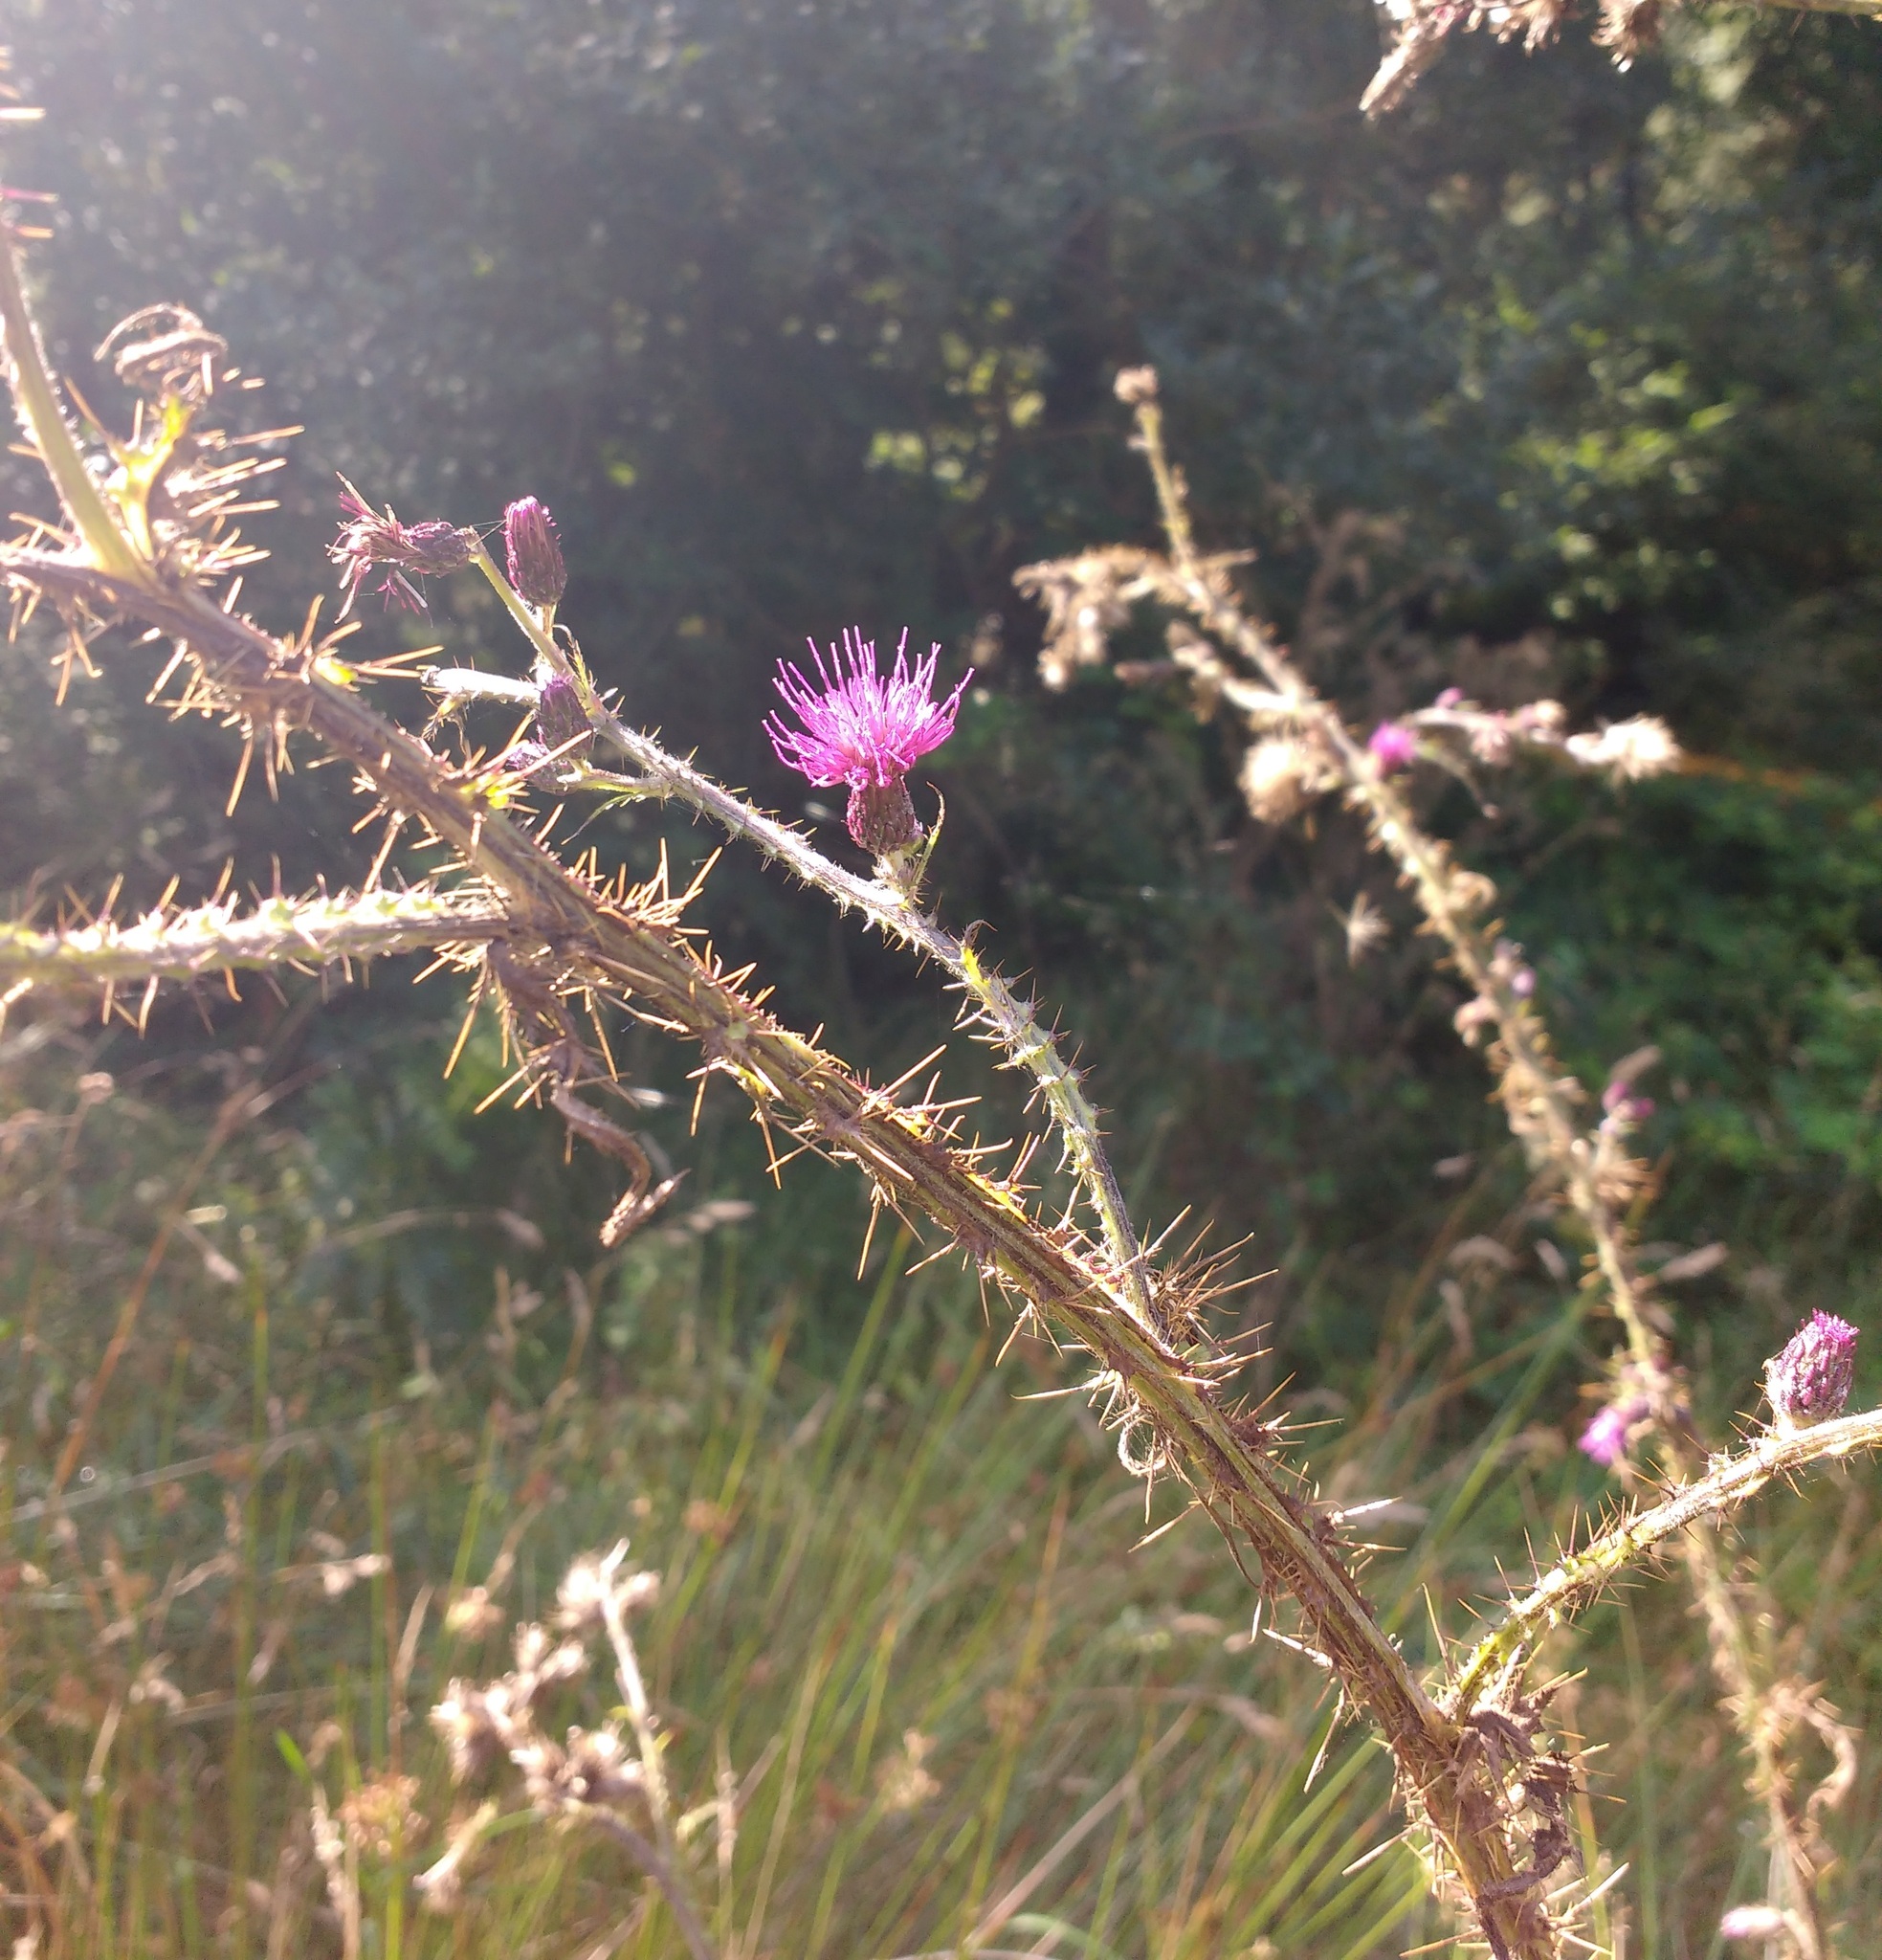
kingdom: Plantae
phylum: Tracheophyta
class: Magnoliopsida
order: Asterales
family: Asteraceae
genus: Cirsium
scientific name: Cirsium palustre
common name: Marsh thistle
